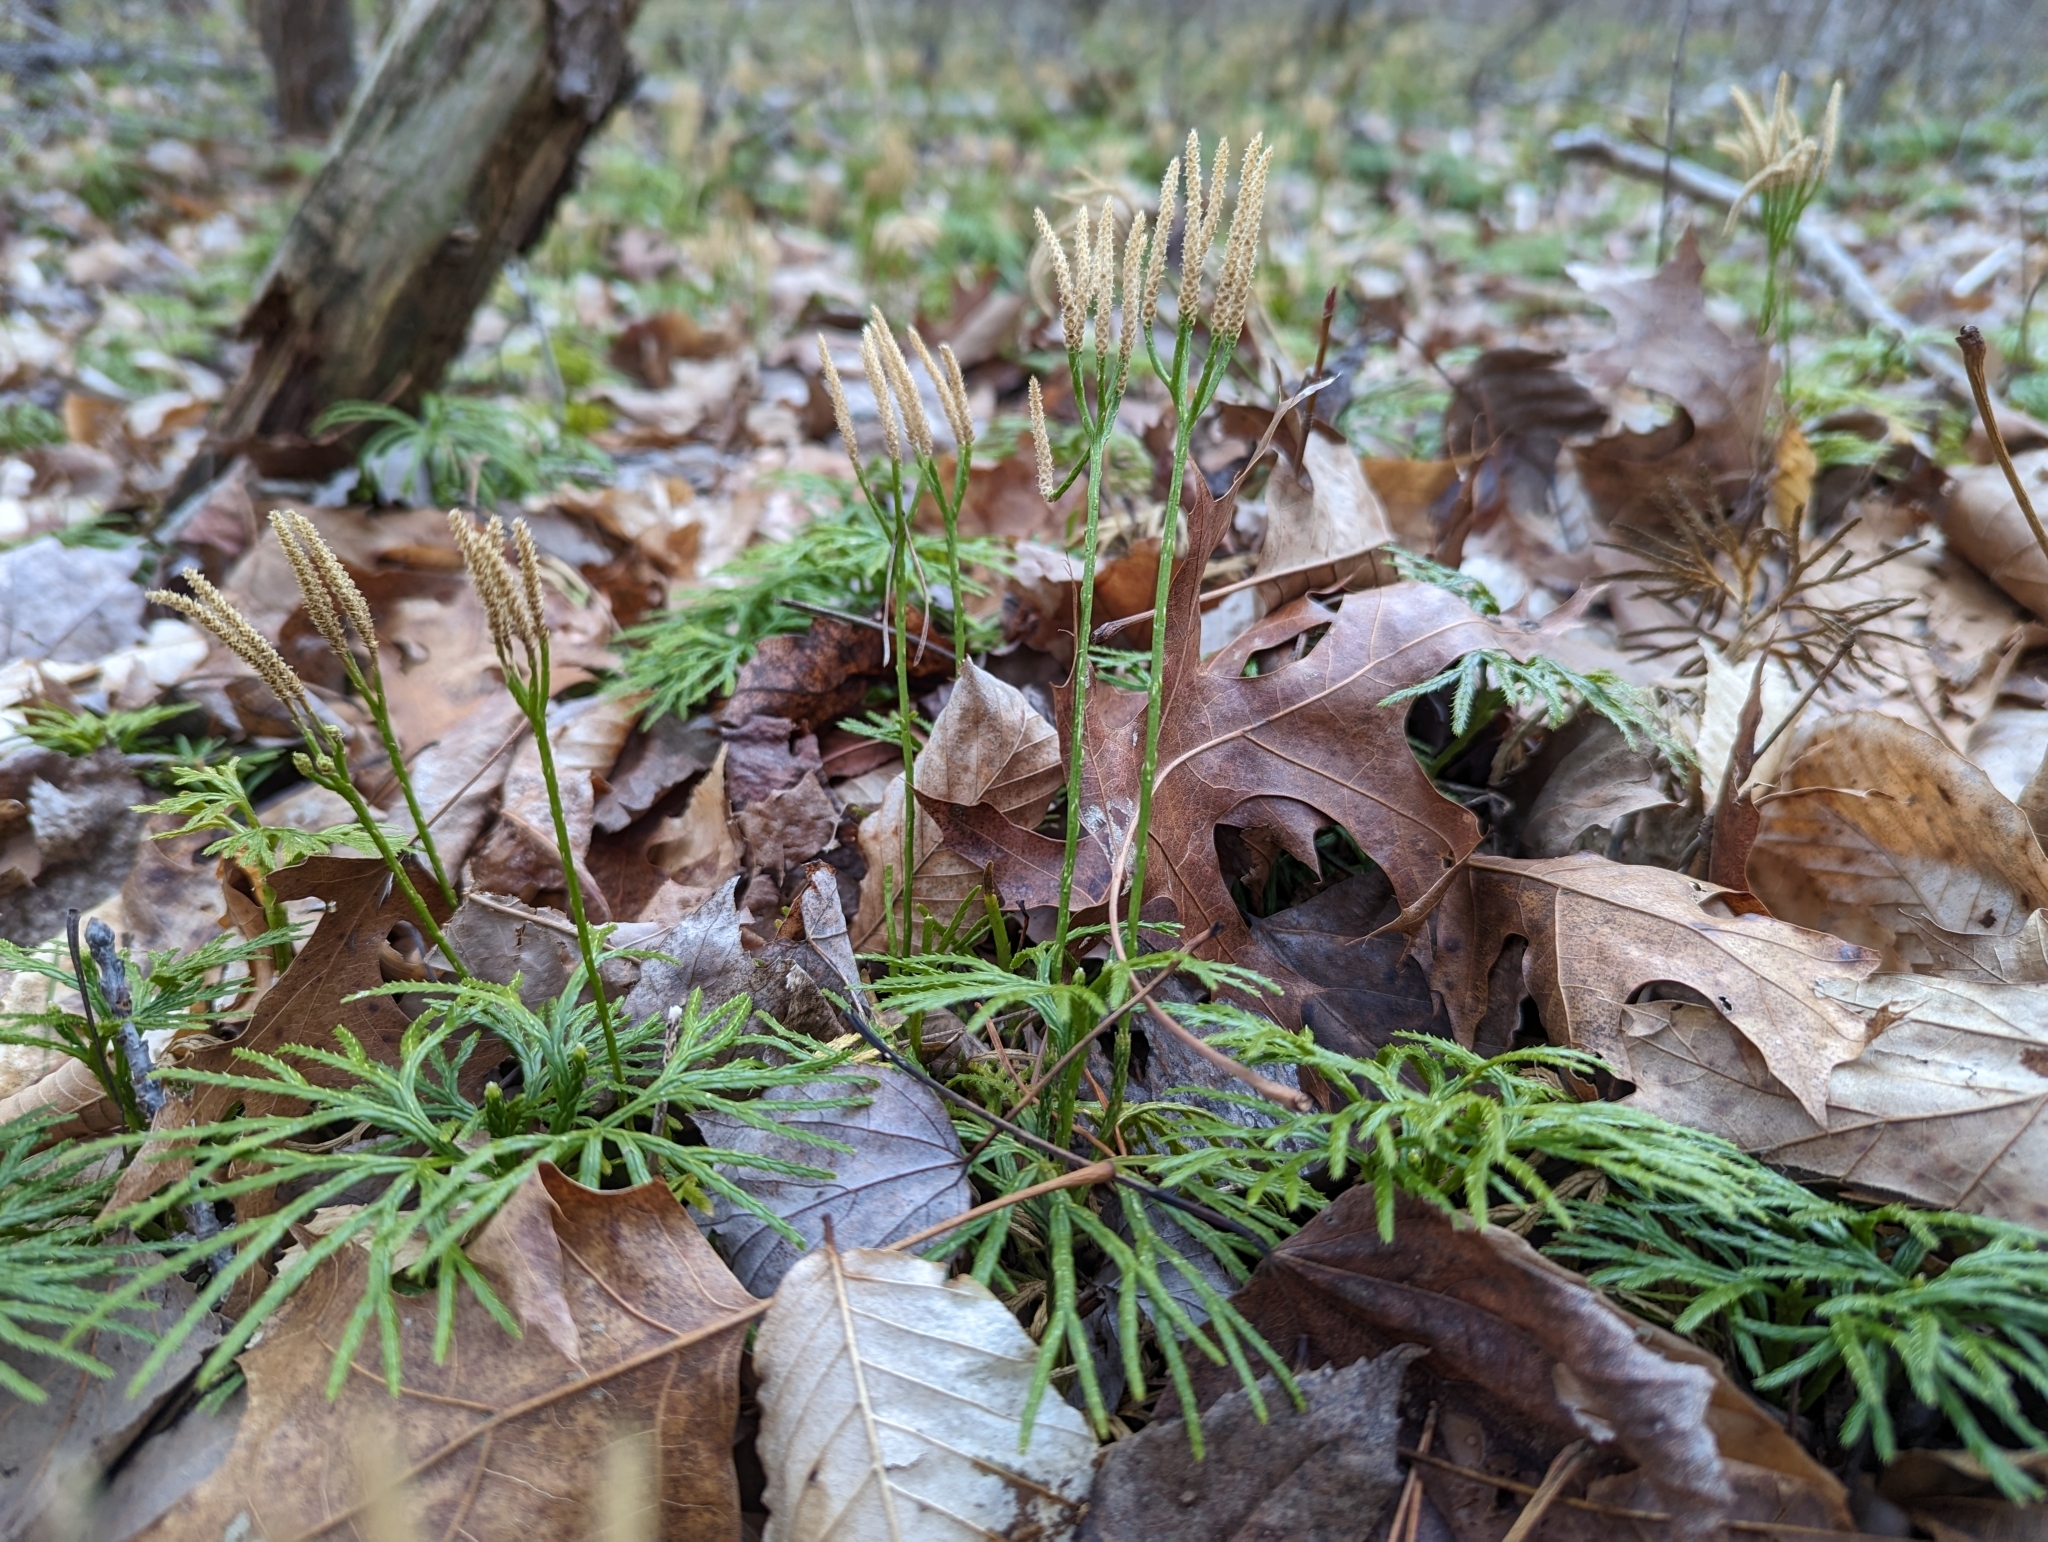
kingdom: Plantae
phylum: Tracheophyta
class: Lycopodiopsida
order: Lycopodiales
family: Lycopodiaceae
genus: Diphasiastrum
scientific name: Diphasiastrum digitatum
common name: Southern running-pine
